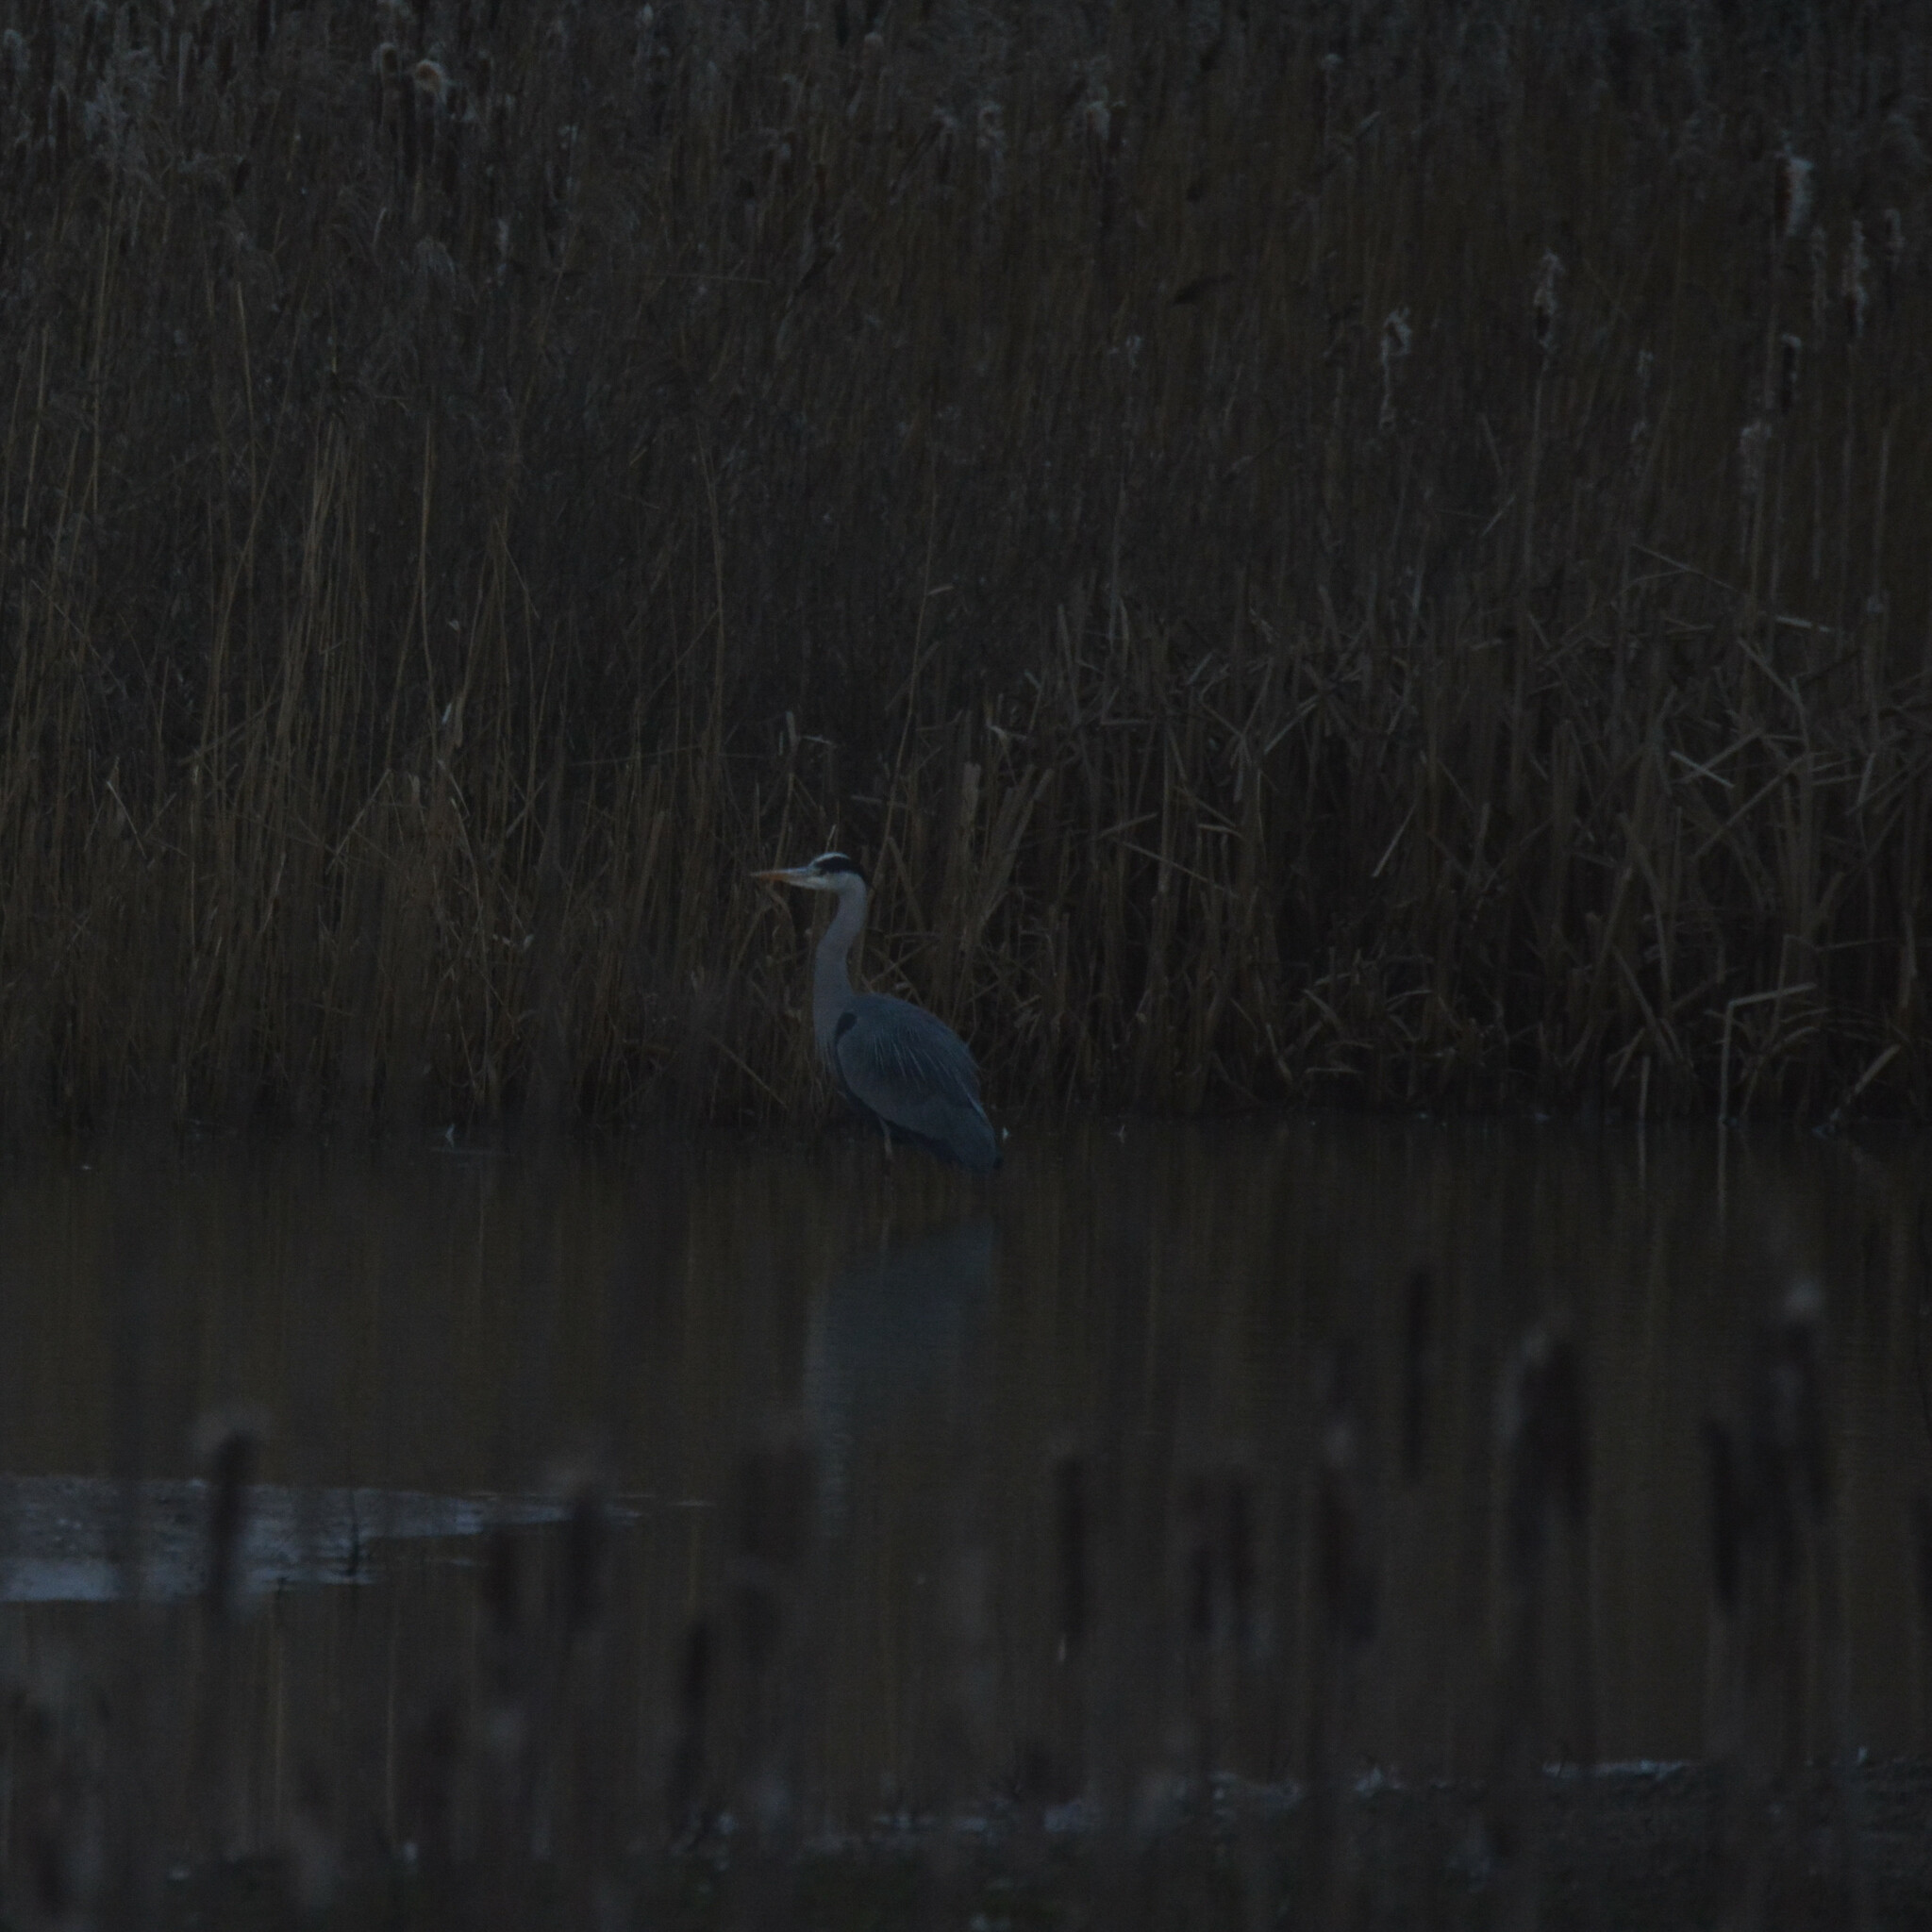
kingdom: Animalia
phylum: Chordata
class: Aves
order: Pelecaniformes
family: Ardeidae
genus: Ardea
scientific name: Ardea cinerea
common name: Grey heron
